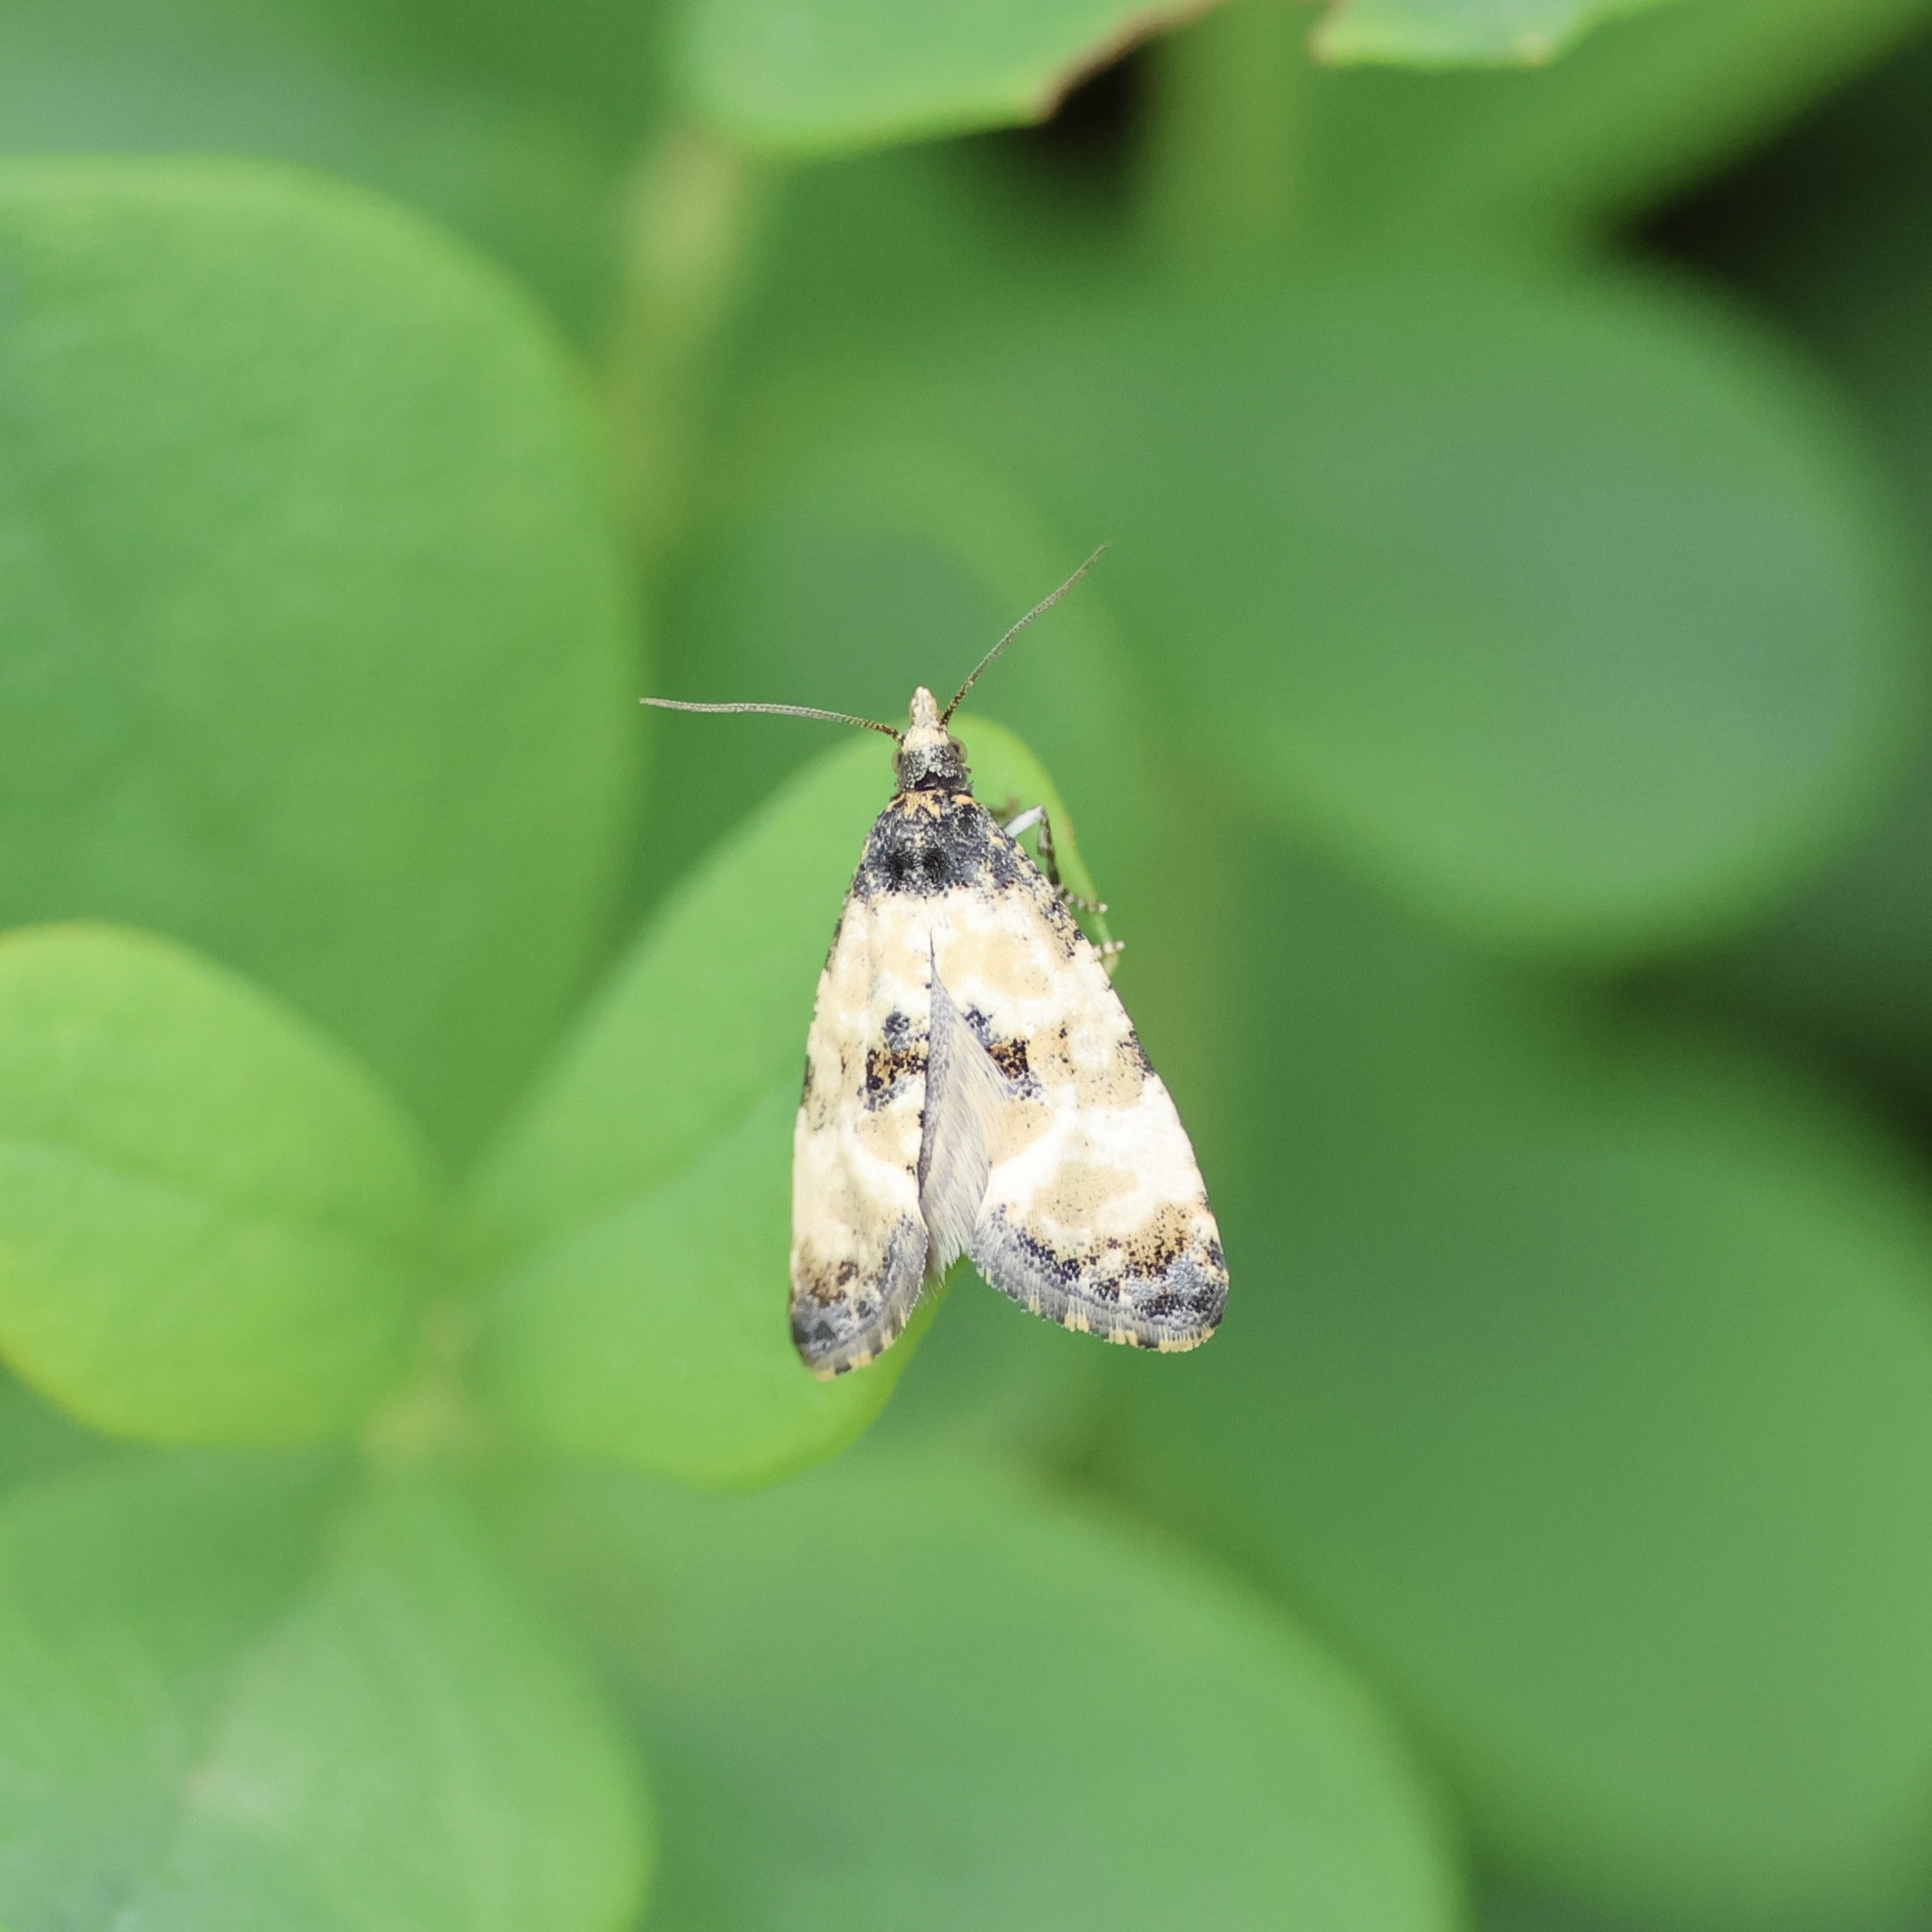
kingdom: Animalia
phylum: Arthropoda
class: Insecta
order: Lepidoptera
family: Tortricidae
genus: Cochylis
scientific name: Cochylis dubitana
